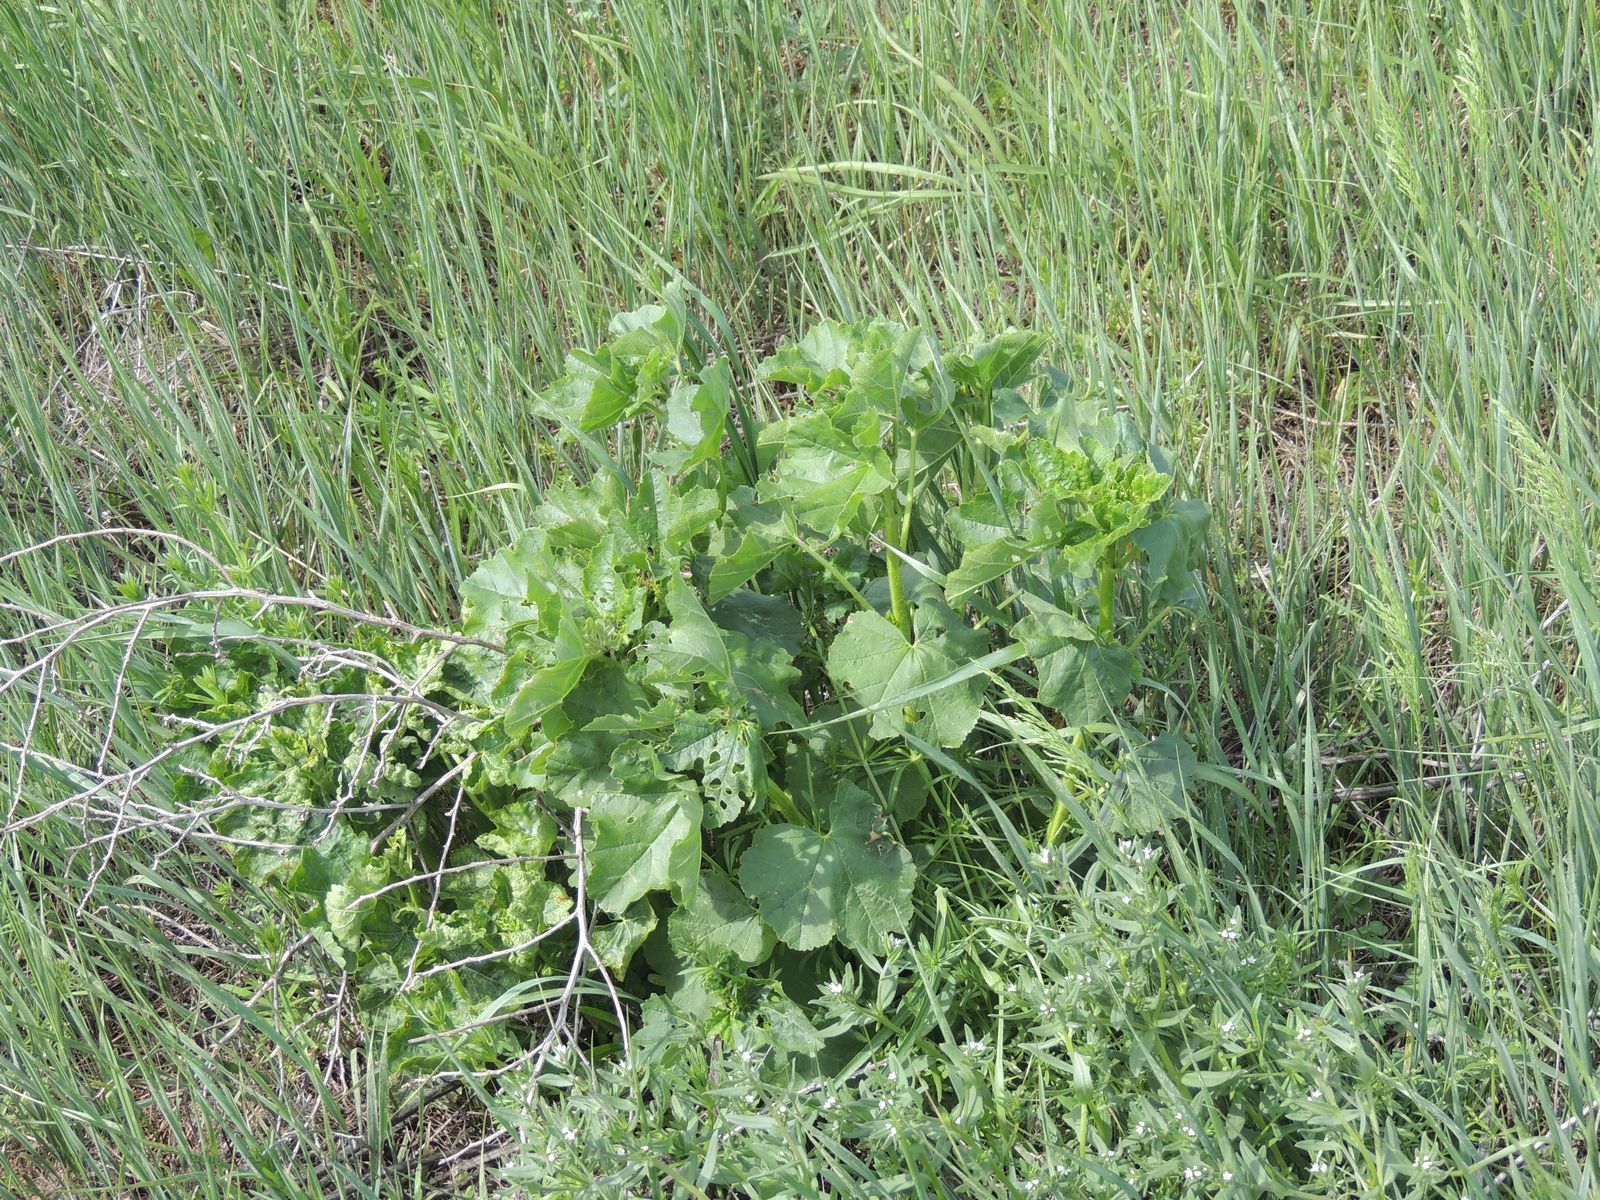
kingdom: Plantae
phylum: Tracheophyta
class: Magnoliopsida
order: Malvales
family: Malvaceae
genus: Malva
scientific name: Malva thuringiaca
